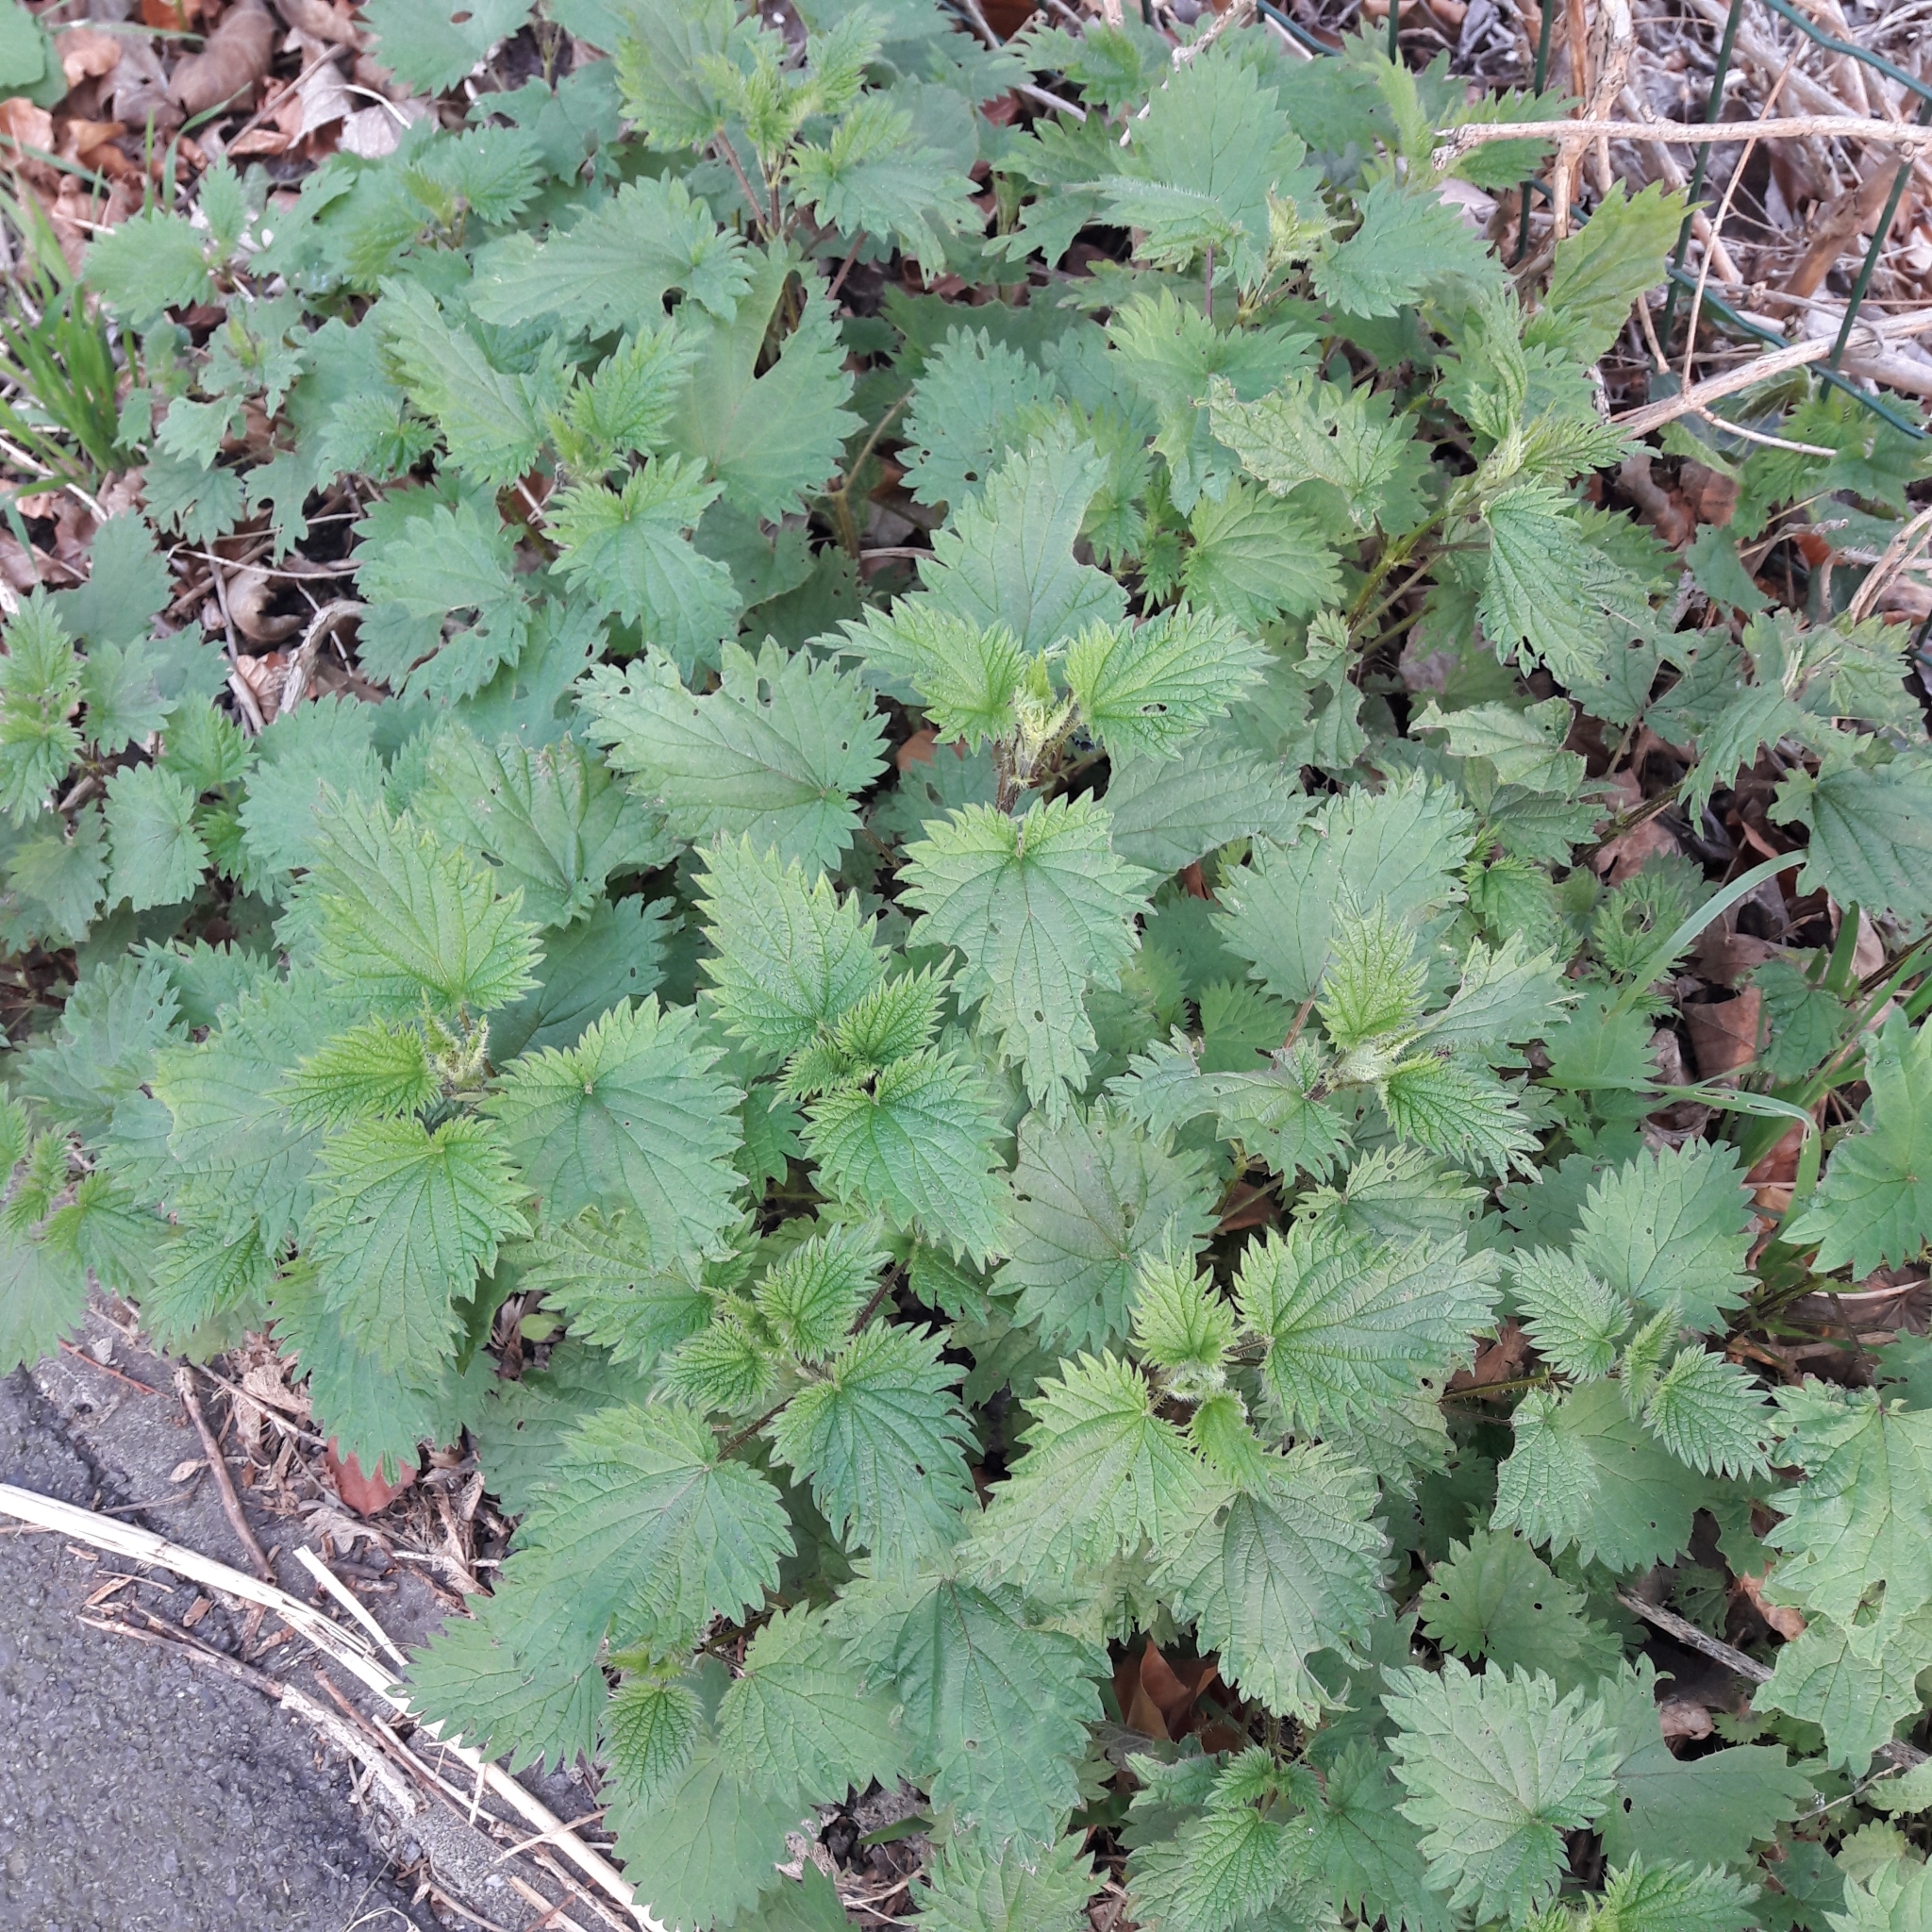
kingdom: Plantae
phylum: Tracheophyta
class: Magnoliopsida
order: Rosales
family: Urticaceae
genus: Urtica
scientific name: Urtica dioica
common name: Common nettle
